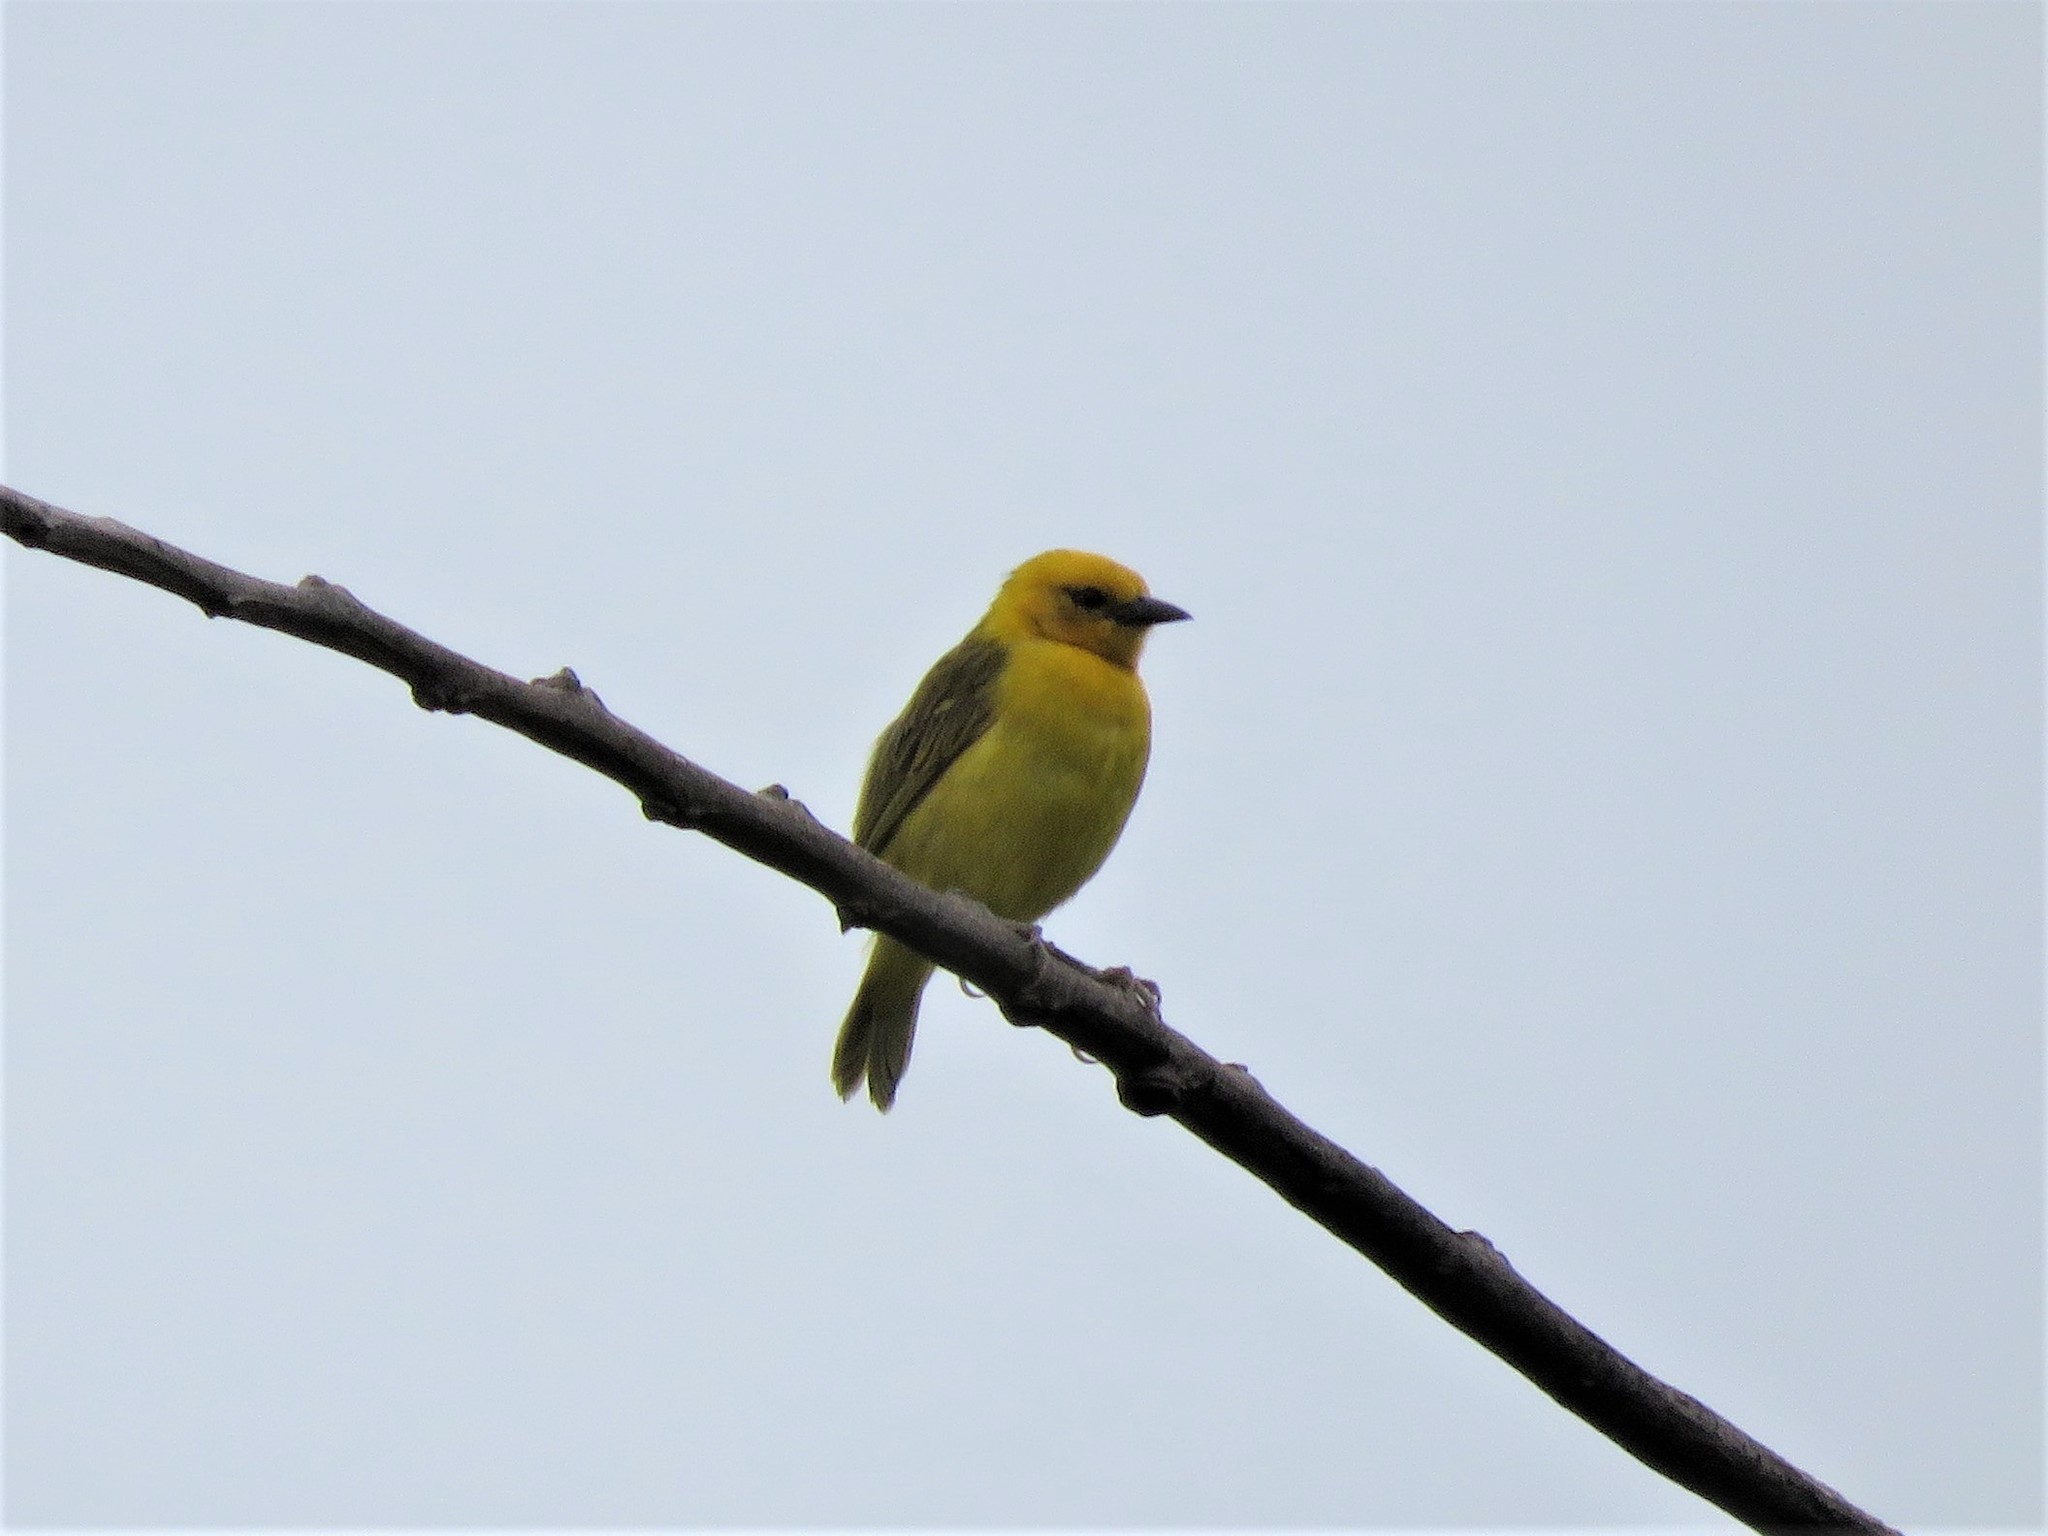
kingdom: Animalia
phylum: Chordata
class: Aves
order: Passeriformes
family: Ploceidae
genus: Ploceus
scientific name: Ploceus pelzelni
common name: Slender-billed weaver
